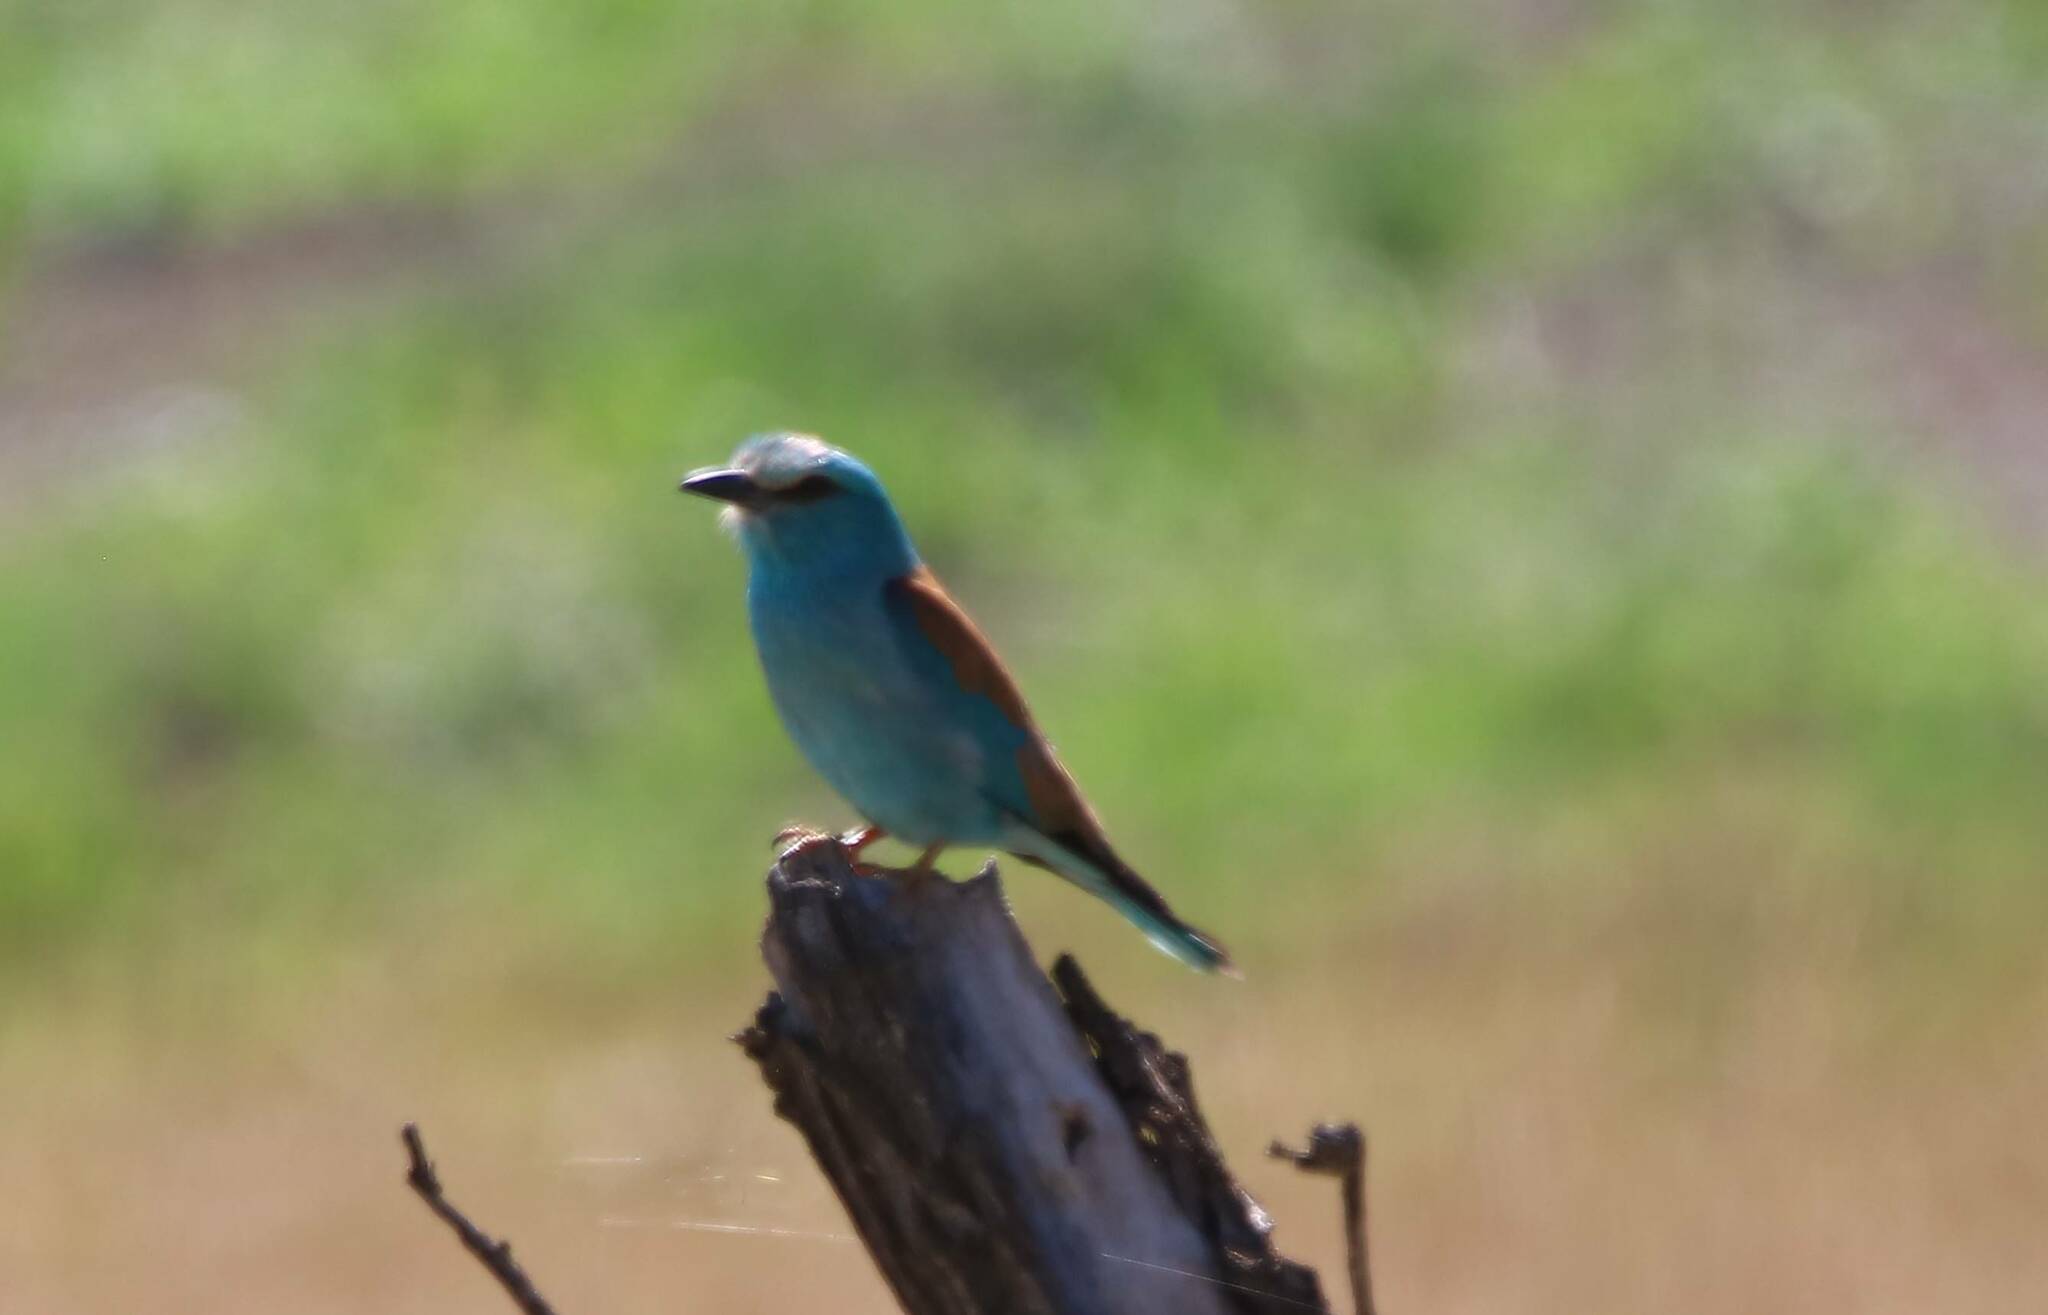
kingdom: Animalia
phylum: Chordata
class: Aves
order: Coraciiformes
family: Coraciidae
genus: Coracias
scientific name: Coracias garrulus
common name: European roller
